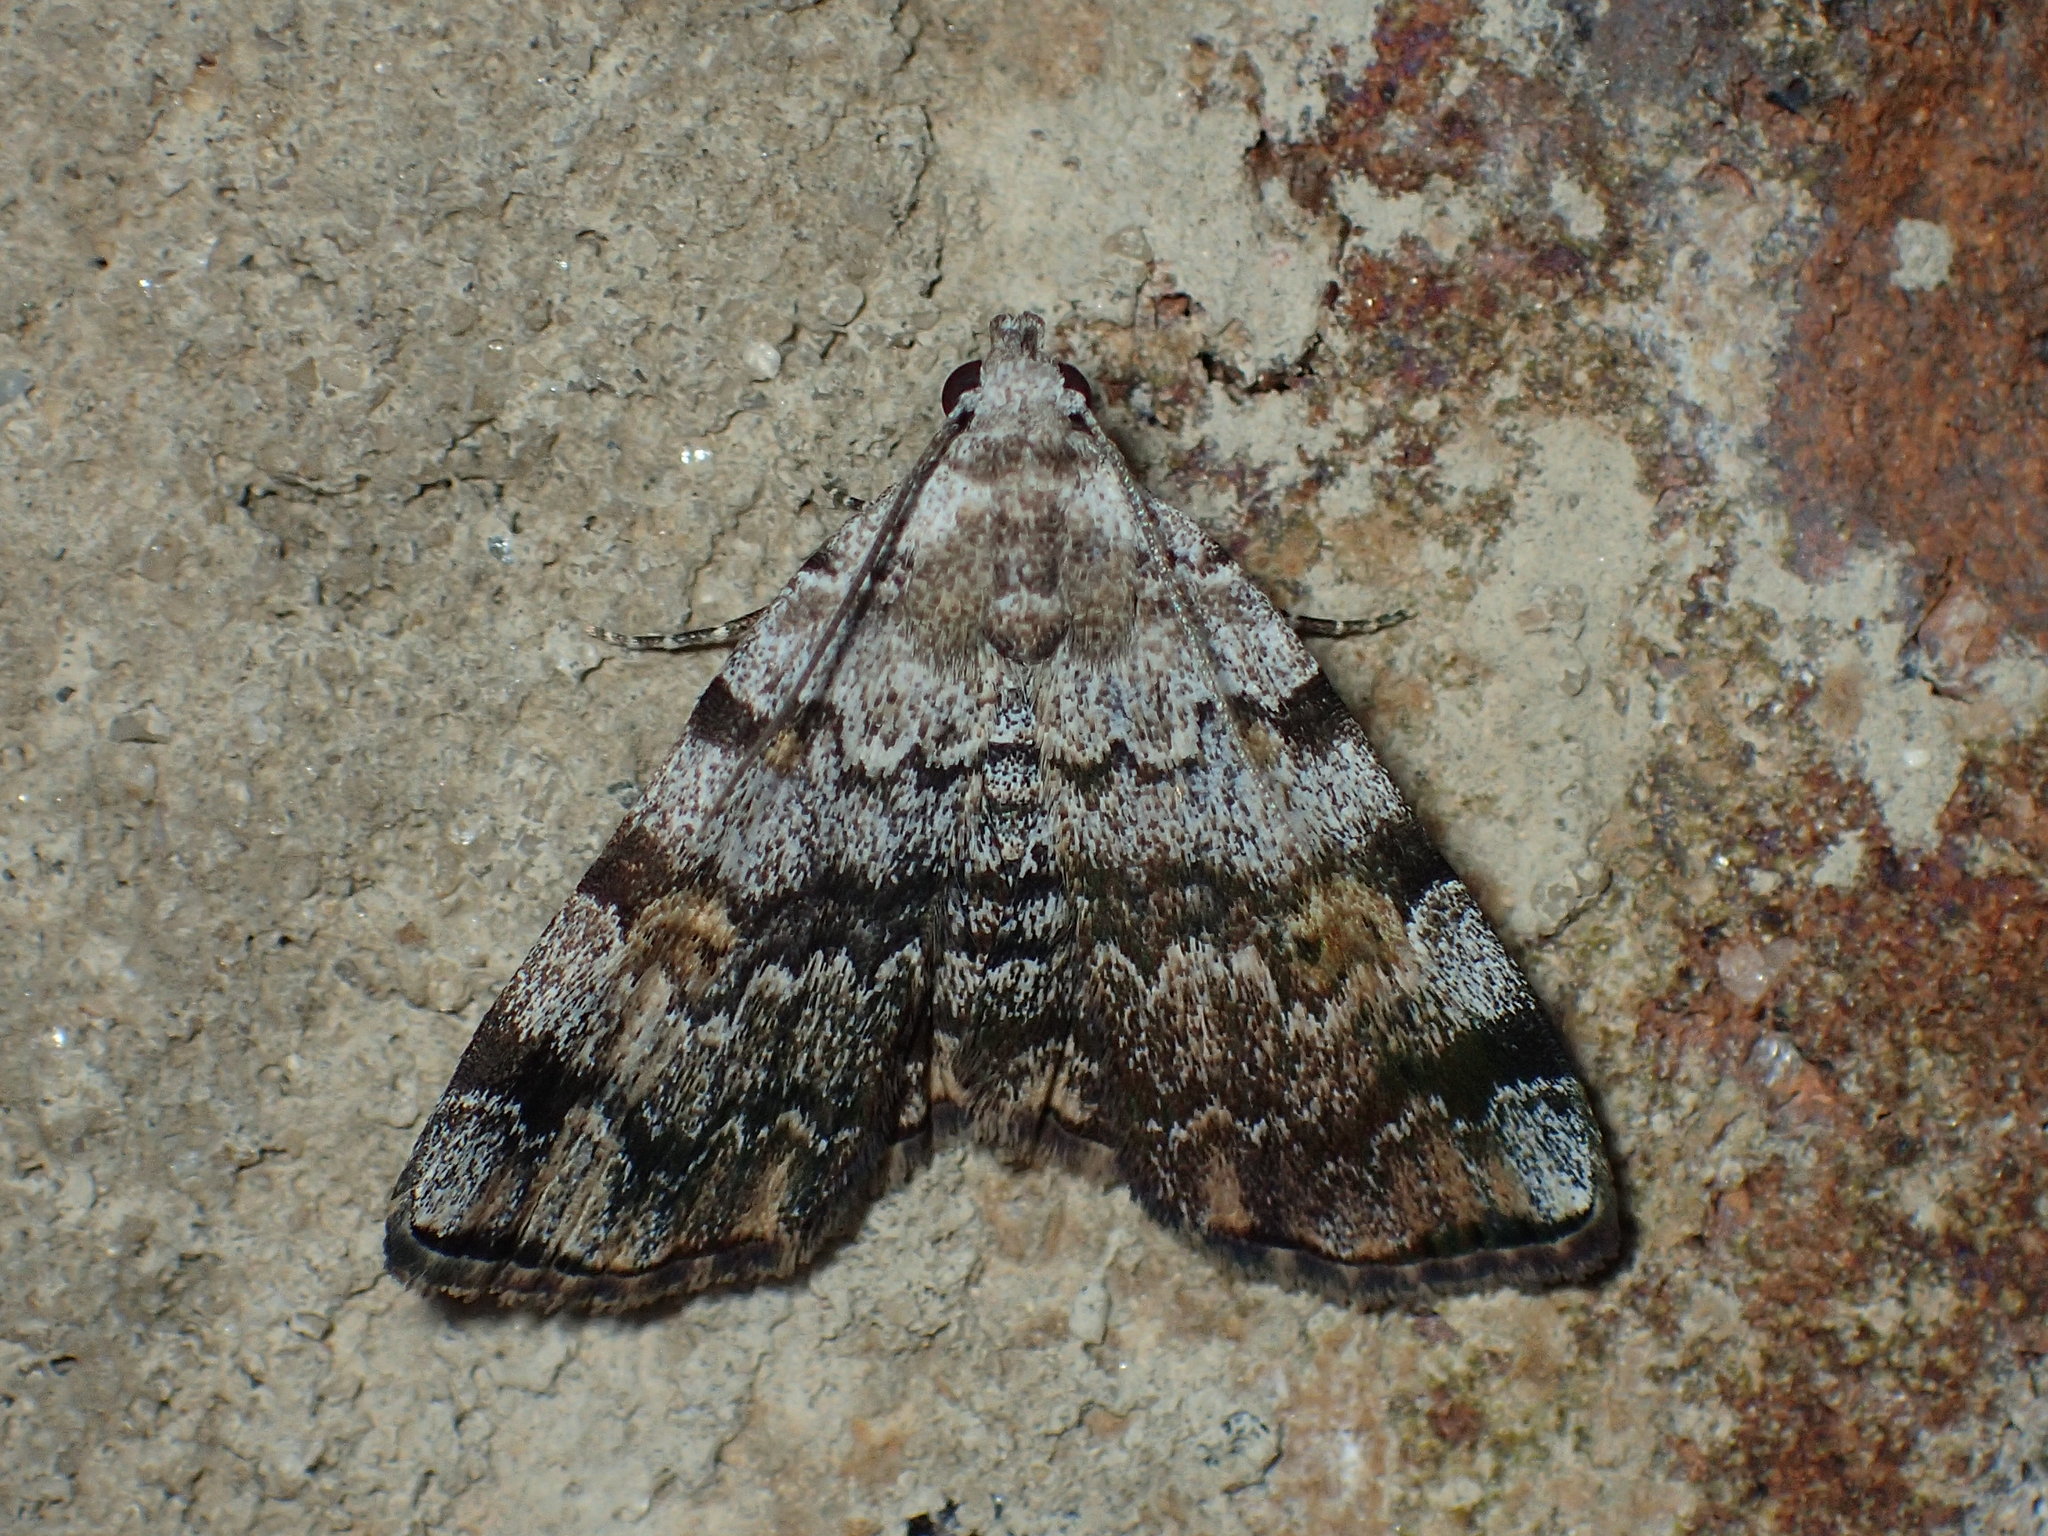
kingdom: Animalia
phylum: Arthropoda
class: Insecta
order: Lepidoptera
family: Erebidae
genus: Idia
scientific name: Idia americalis
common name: American idia moth
